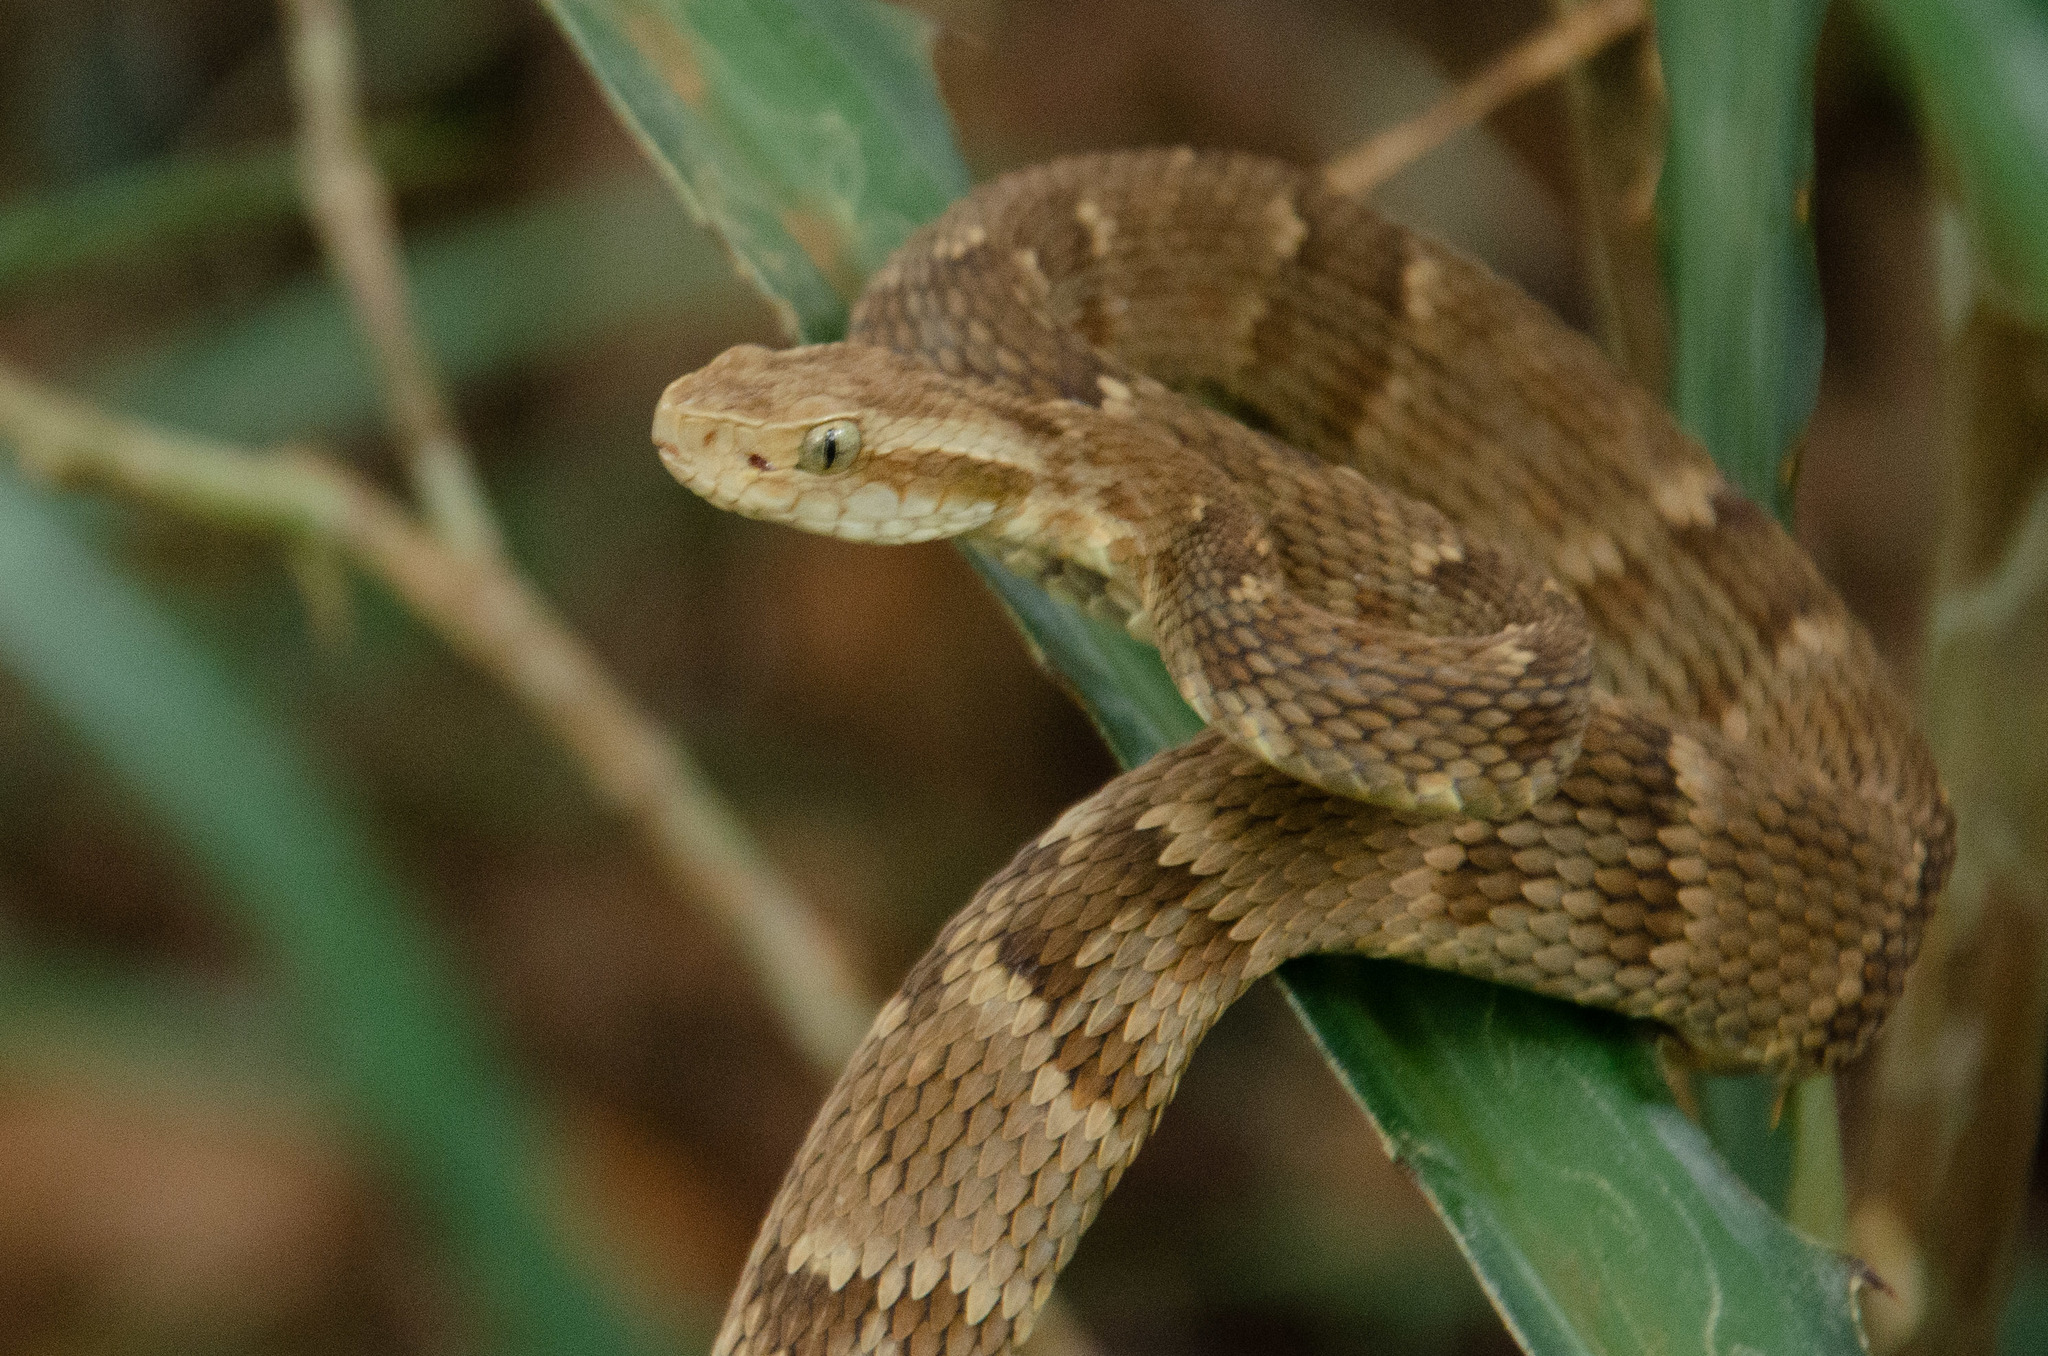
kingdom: Animalia
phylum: Chordata
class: Squamata
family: Viperidae
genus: Bothrops
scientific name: Bothrops jararaca
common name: Jararaca
